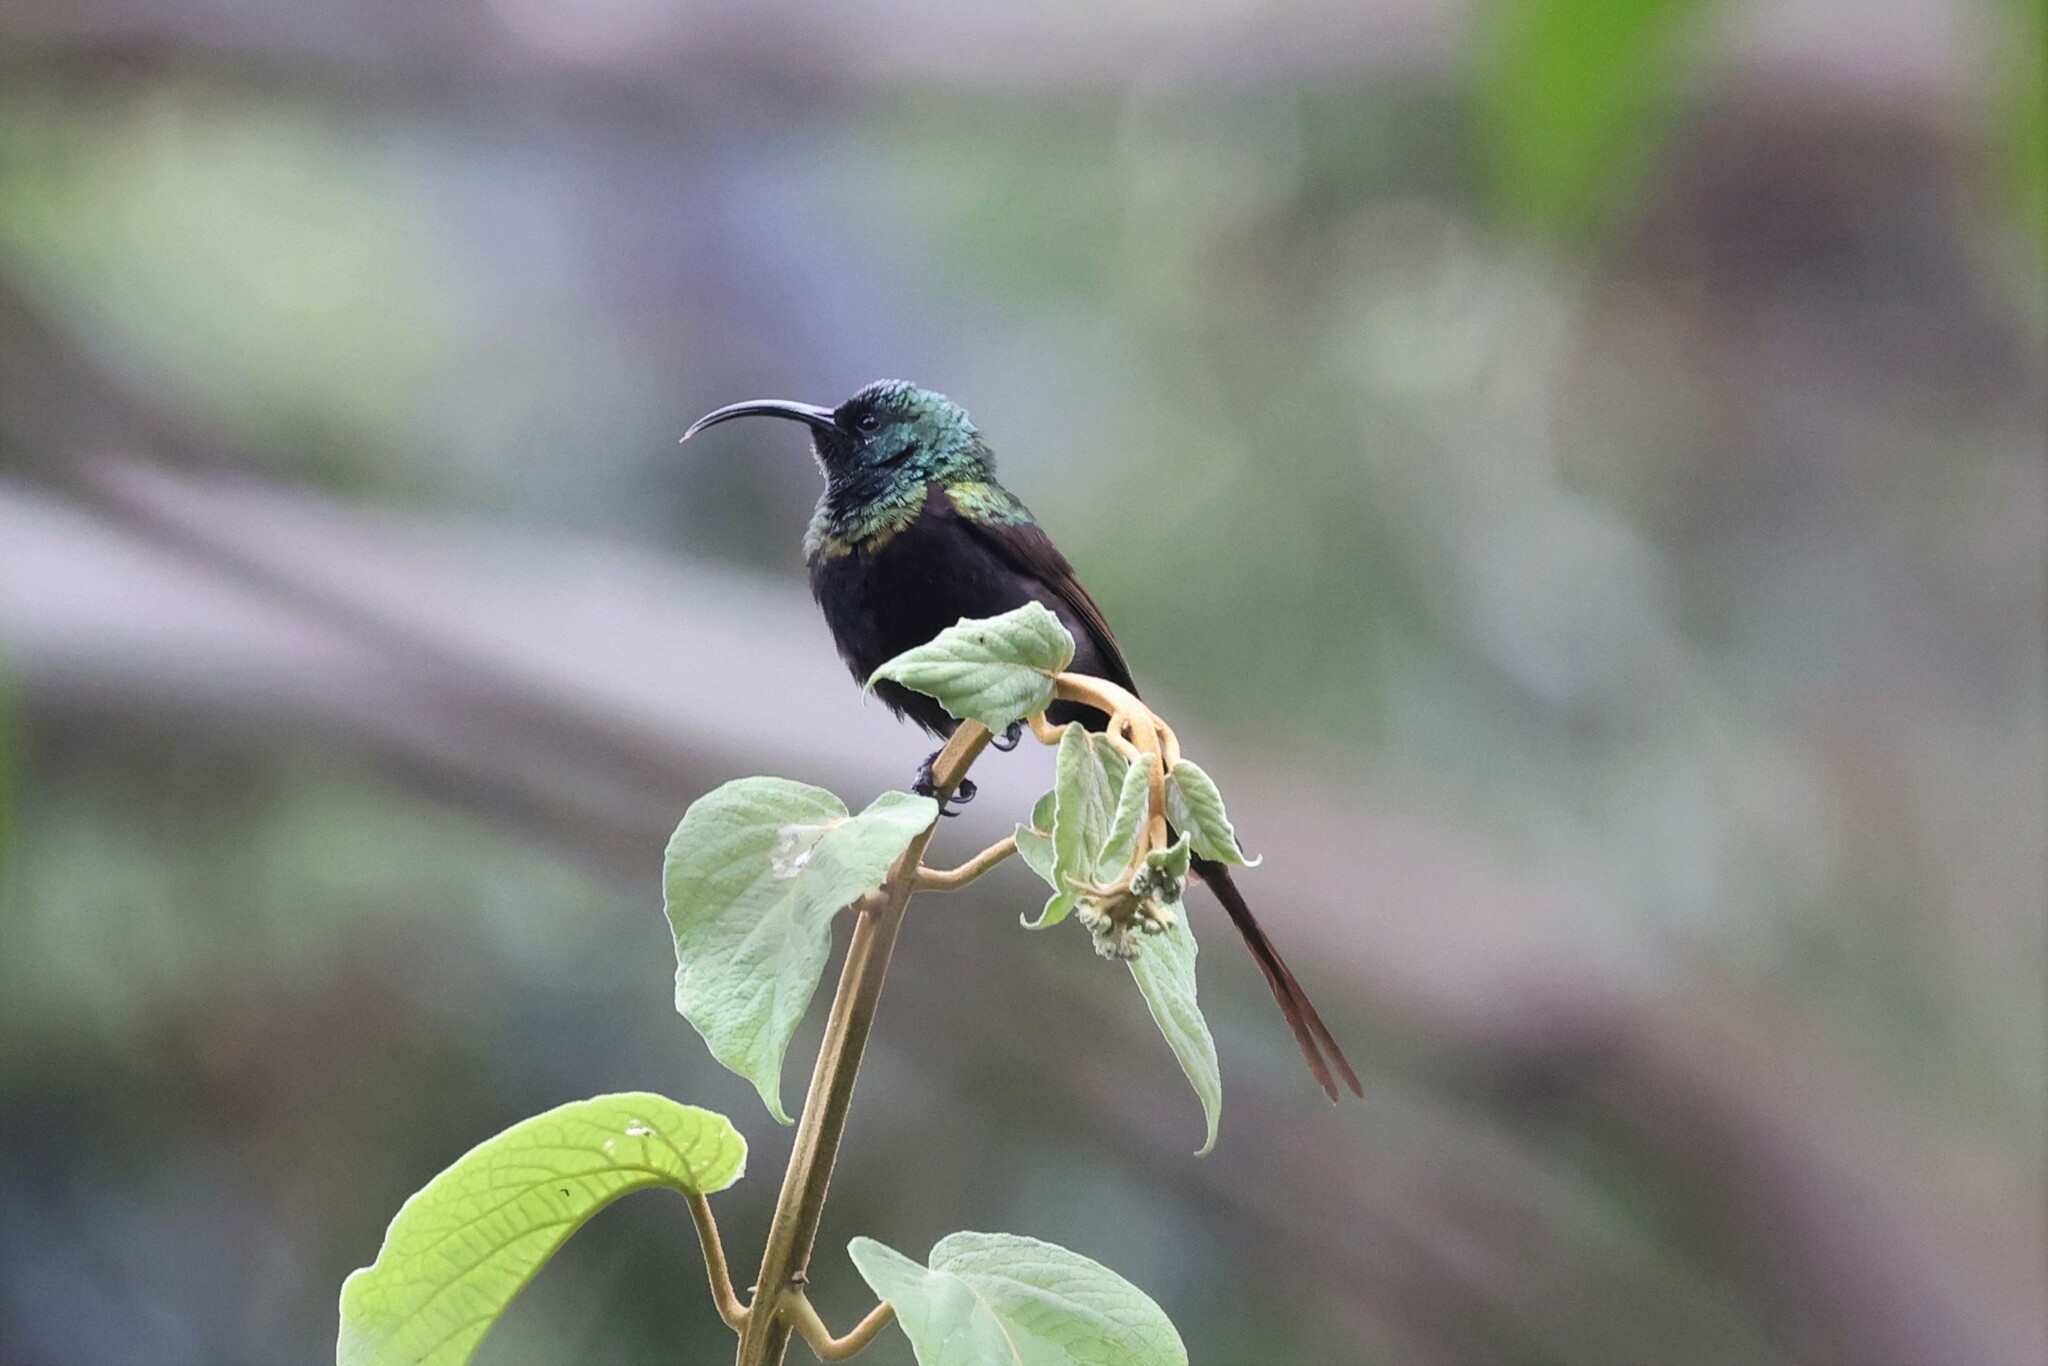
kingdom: Animalia
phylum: Chordata
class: Aves
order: Passeriformes
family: Nectariniidae
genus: Nectarinia
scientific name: Nectarinia kilimensis
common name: Bronzy sunbird
